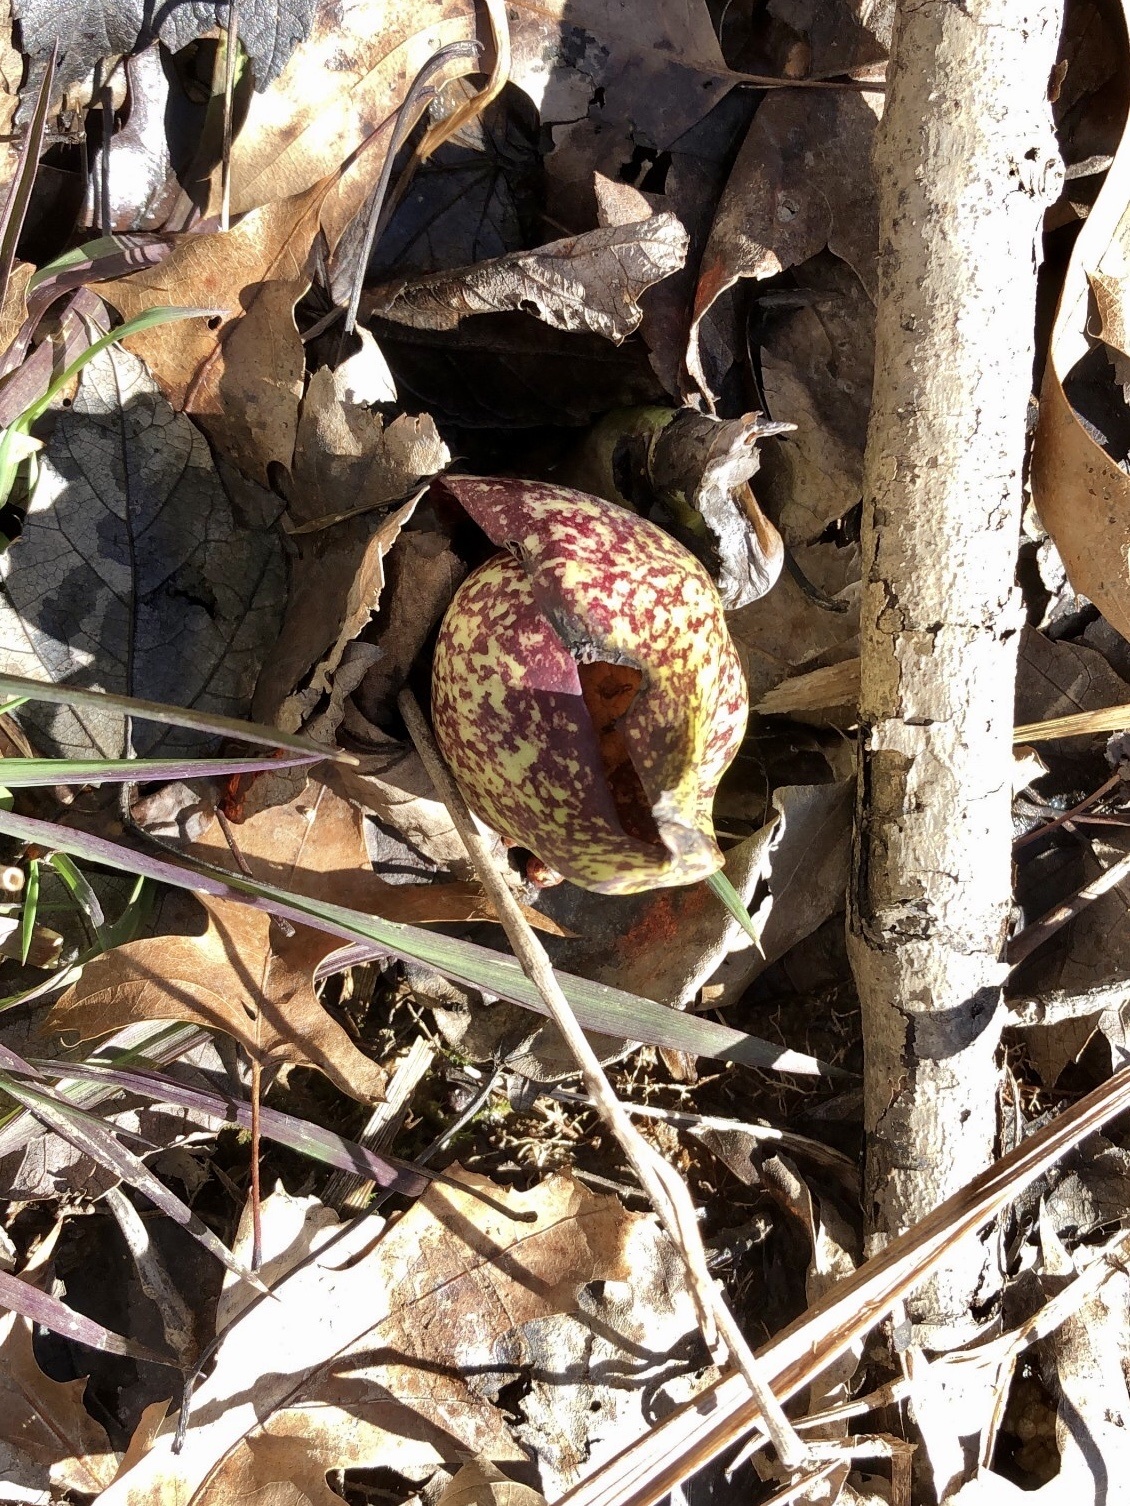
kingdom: Plantae
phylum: Tracheophyta
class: Liliopsida
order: Alismatales
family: Araceae
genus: Symplocarpus
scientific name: Symplocarpus foetidus
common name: Eastern skunk cabbage
